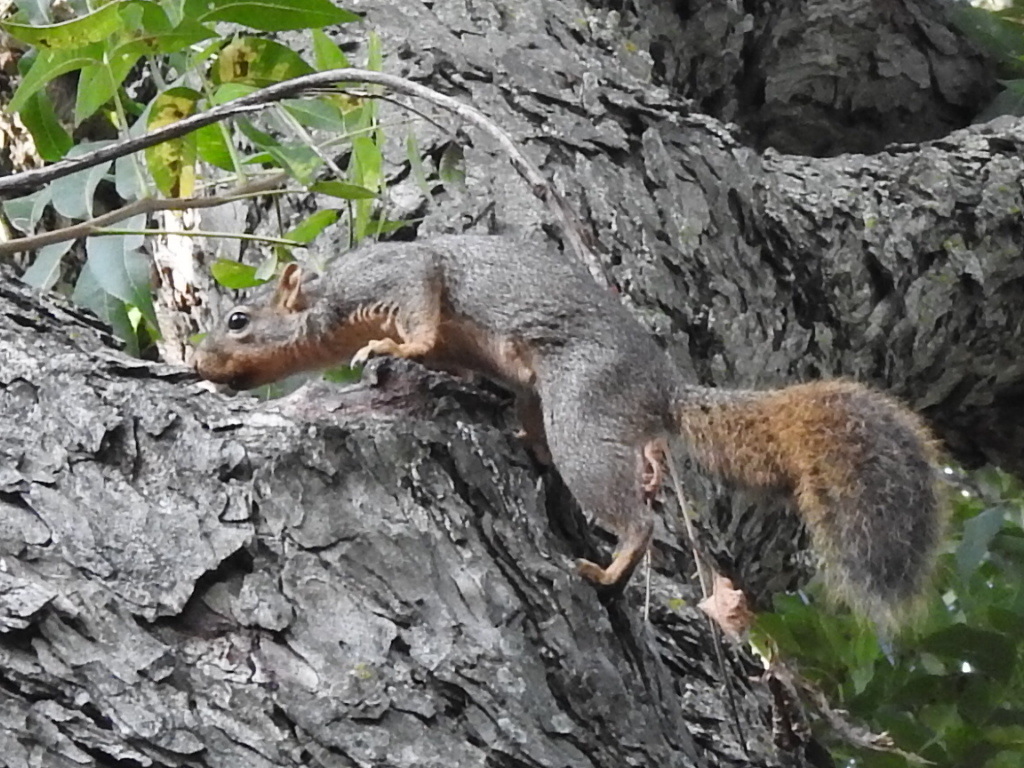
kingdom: Animalia
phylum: Chordata
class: Mammalia
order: Rodentia
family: Sciuridae
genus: Sciurus
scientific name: Sciurus niger
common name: Fox squirrel
